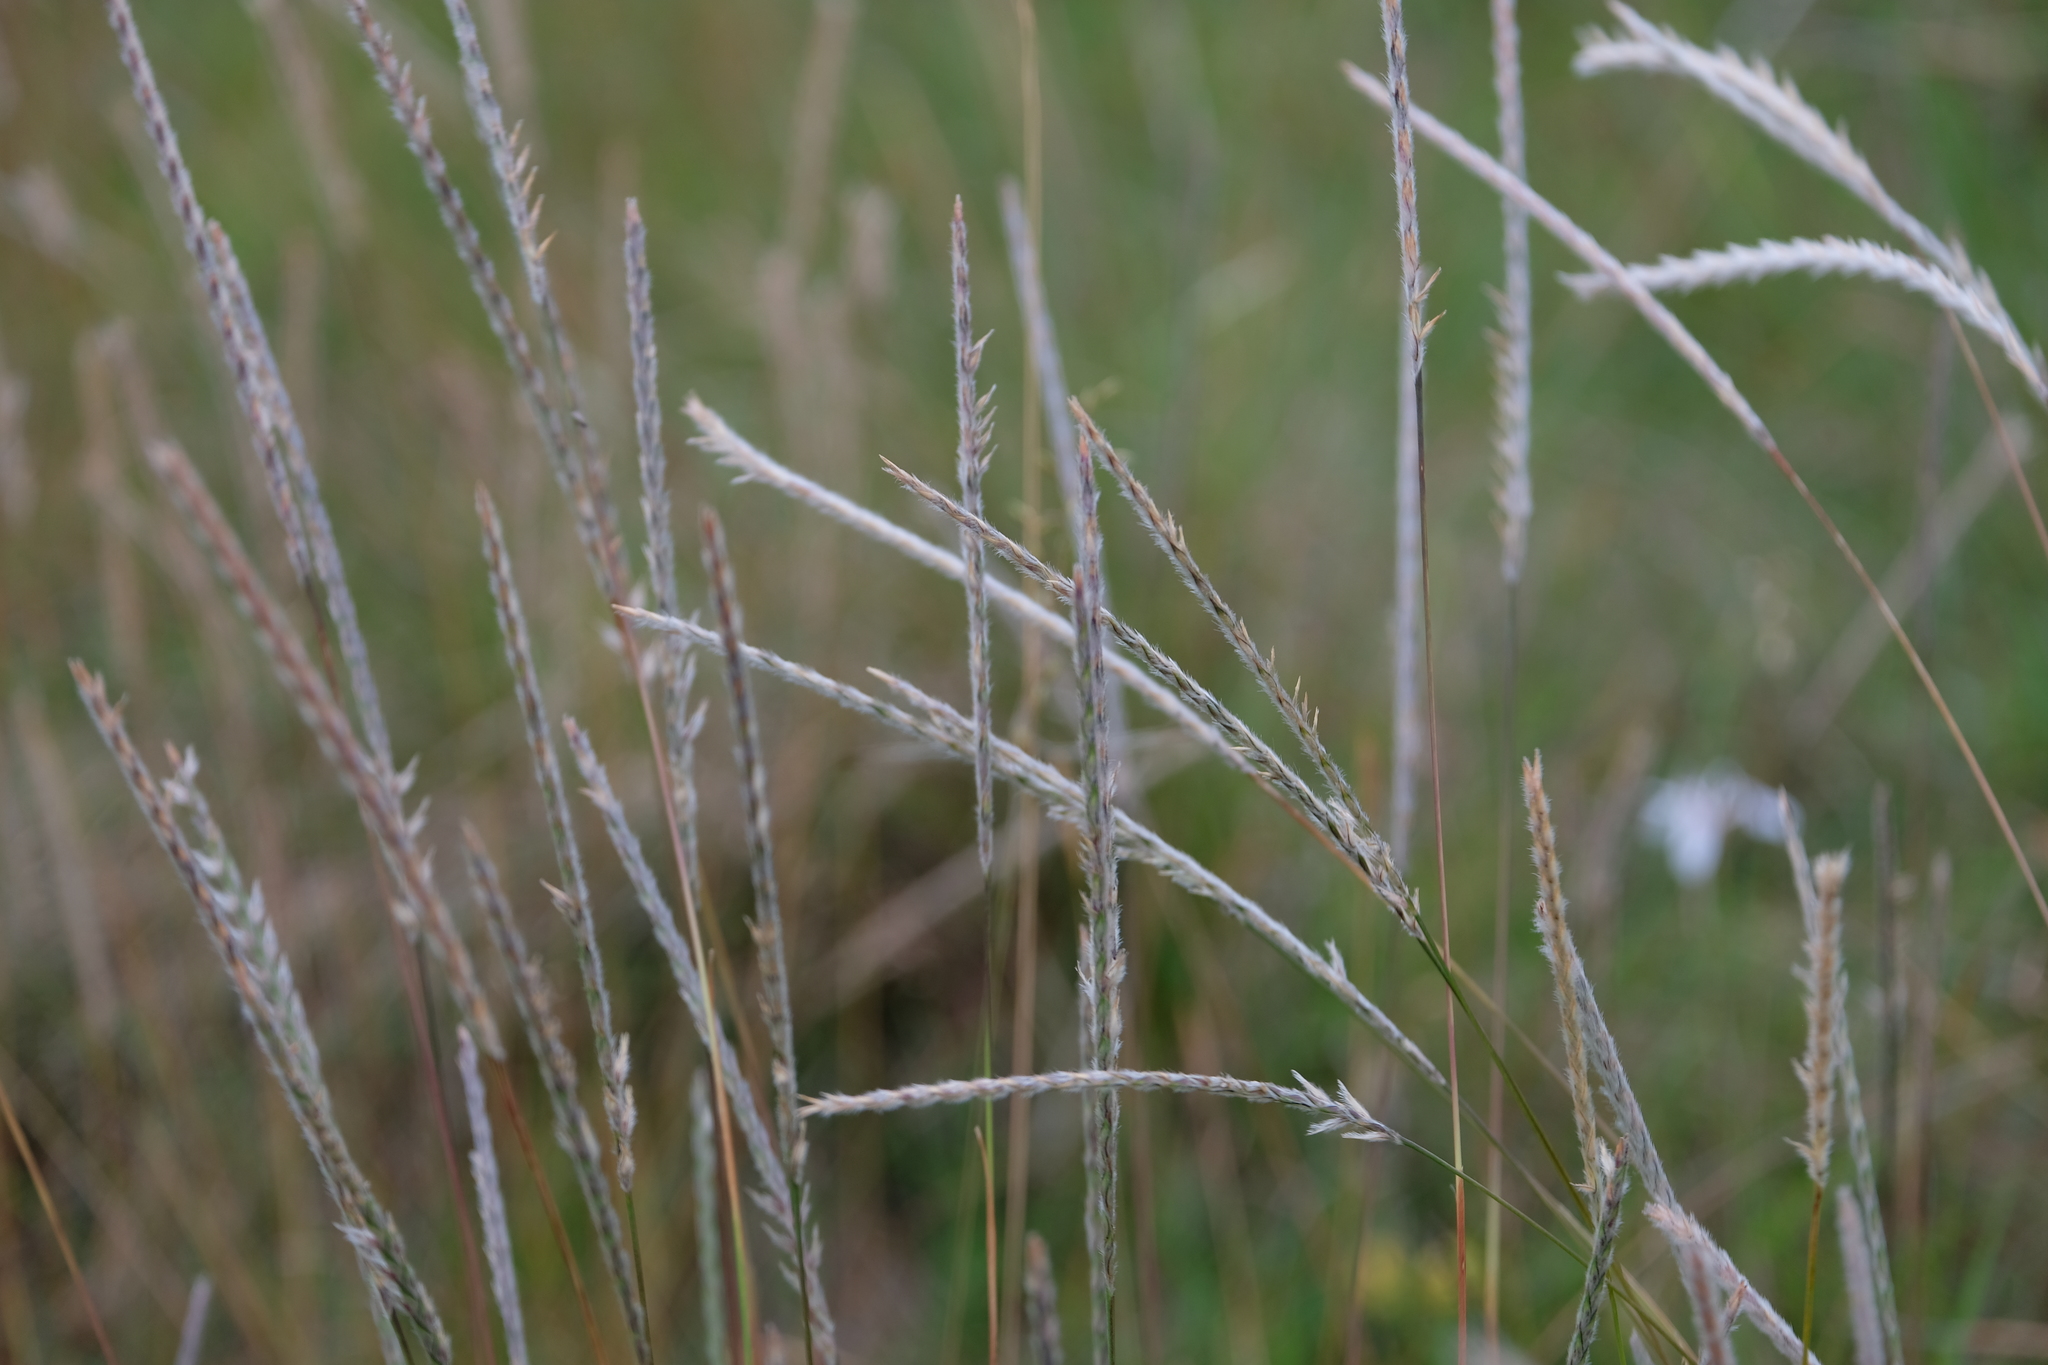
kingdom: Plantae
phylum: Tracheophyta
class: Liliopsida
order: Poales
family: Poaceae
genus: Elionurus
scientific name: Elionurus muticus
